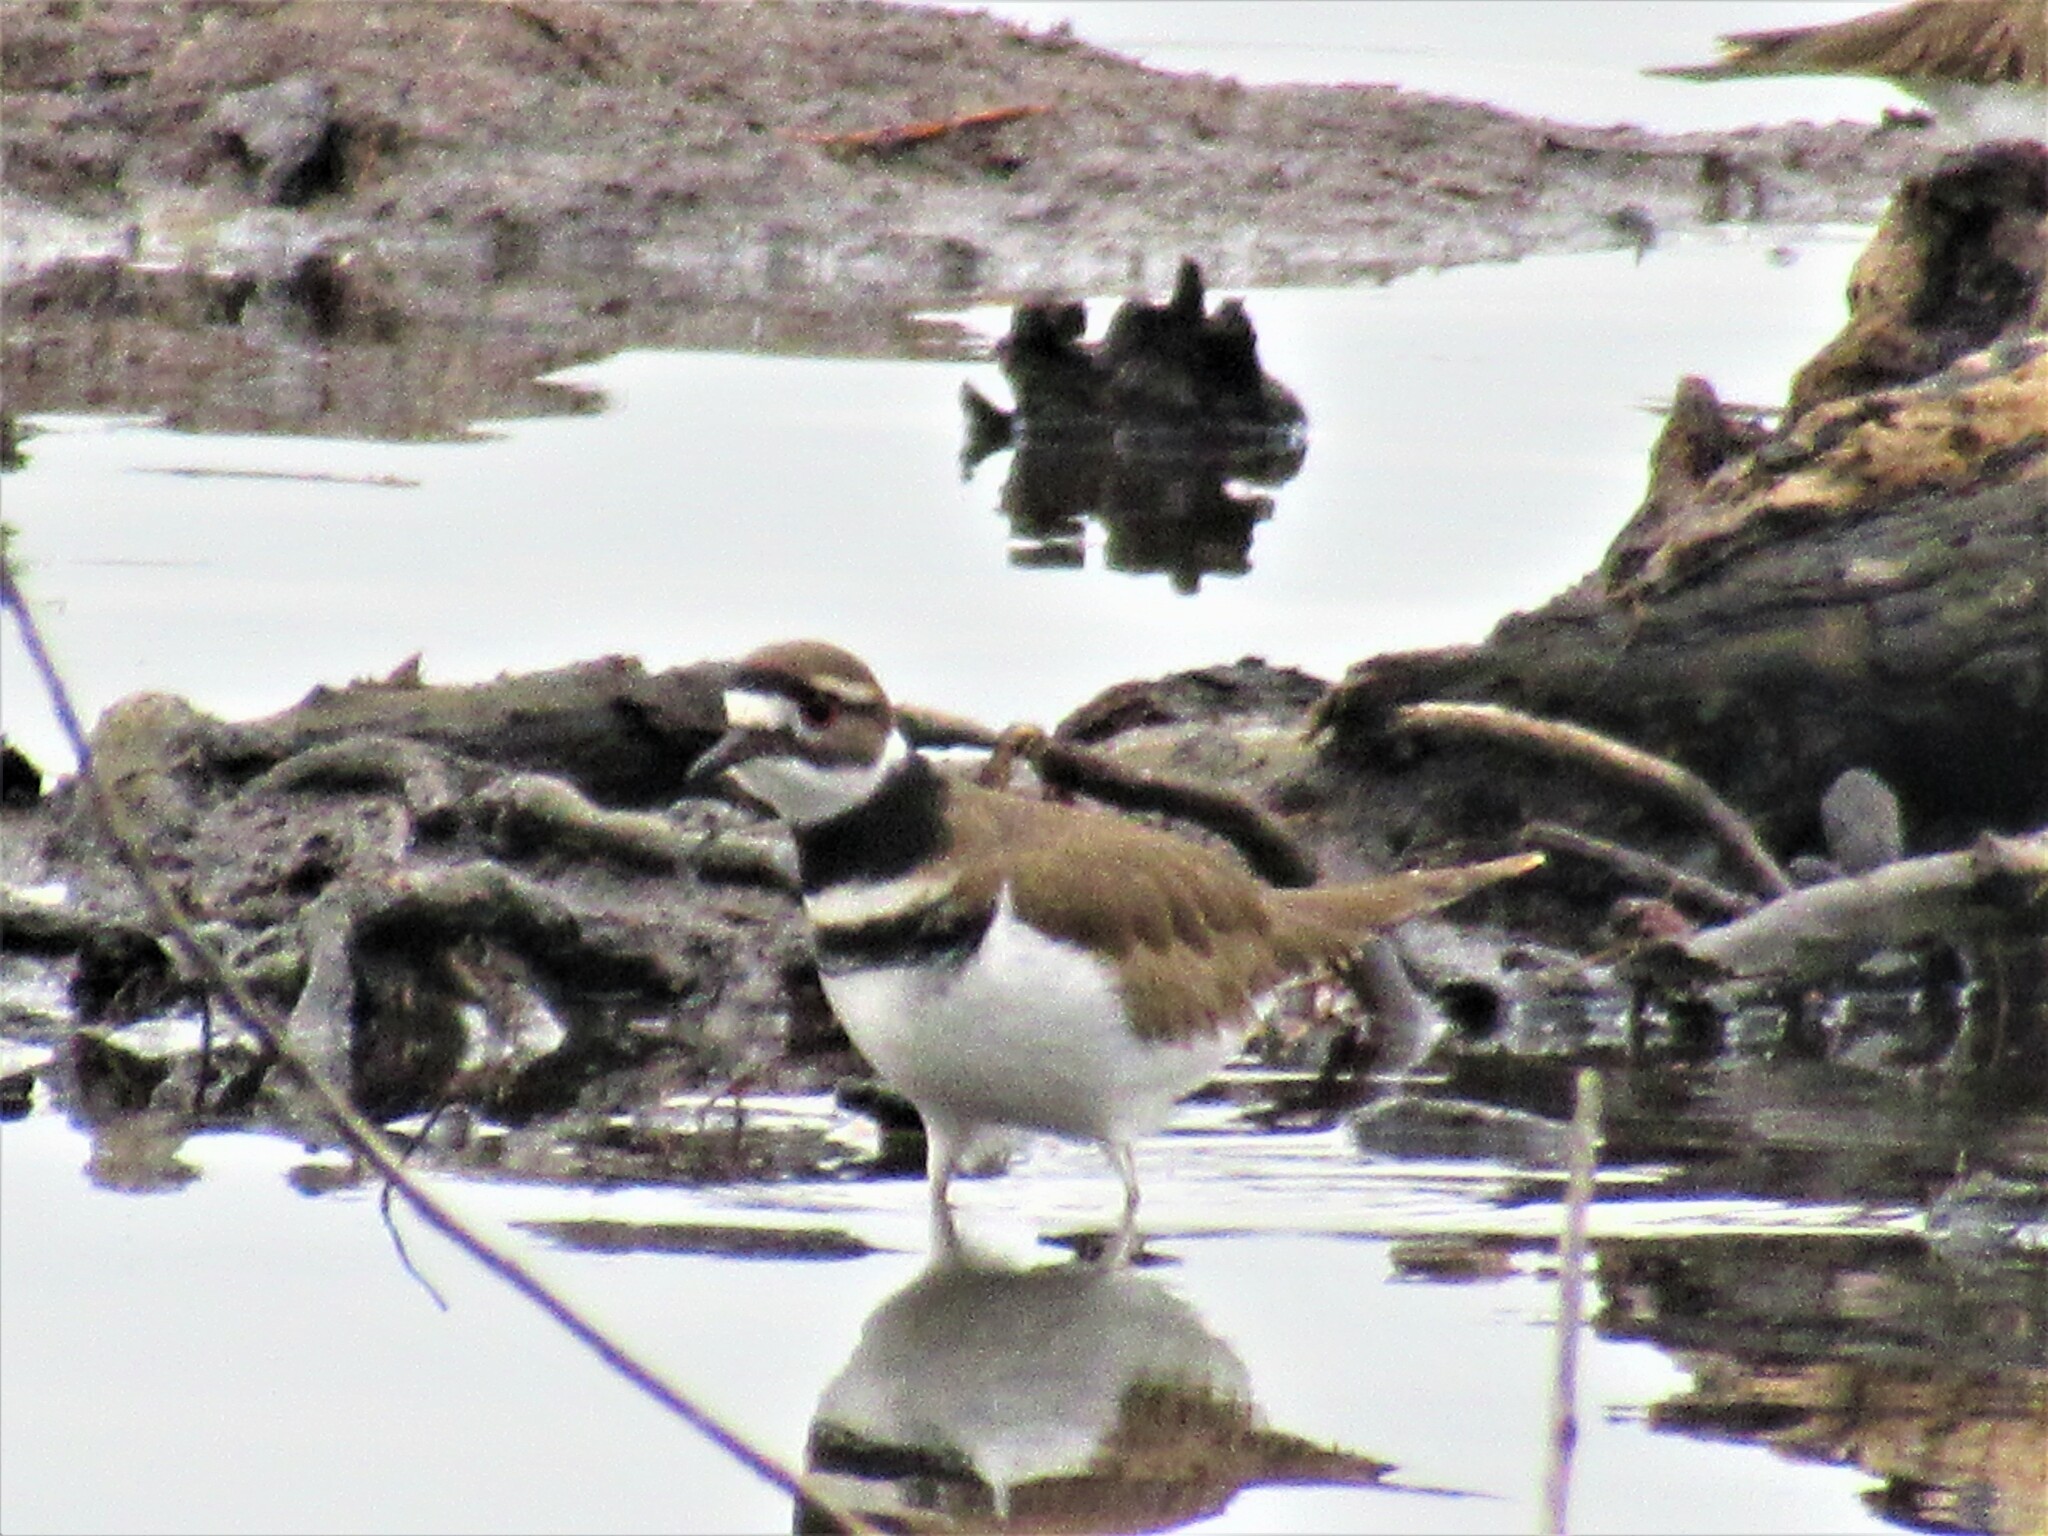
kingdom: Animalia
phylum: Chordata
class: Aves
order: Charadriiformes
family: Charadriidae
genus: Charadrius
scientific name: Charadrius vociferus
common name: Killdeer
